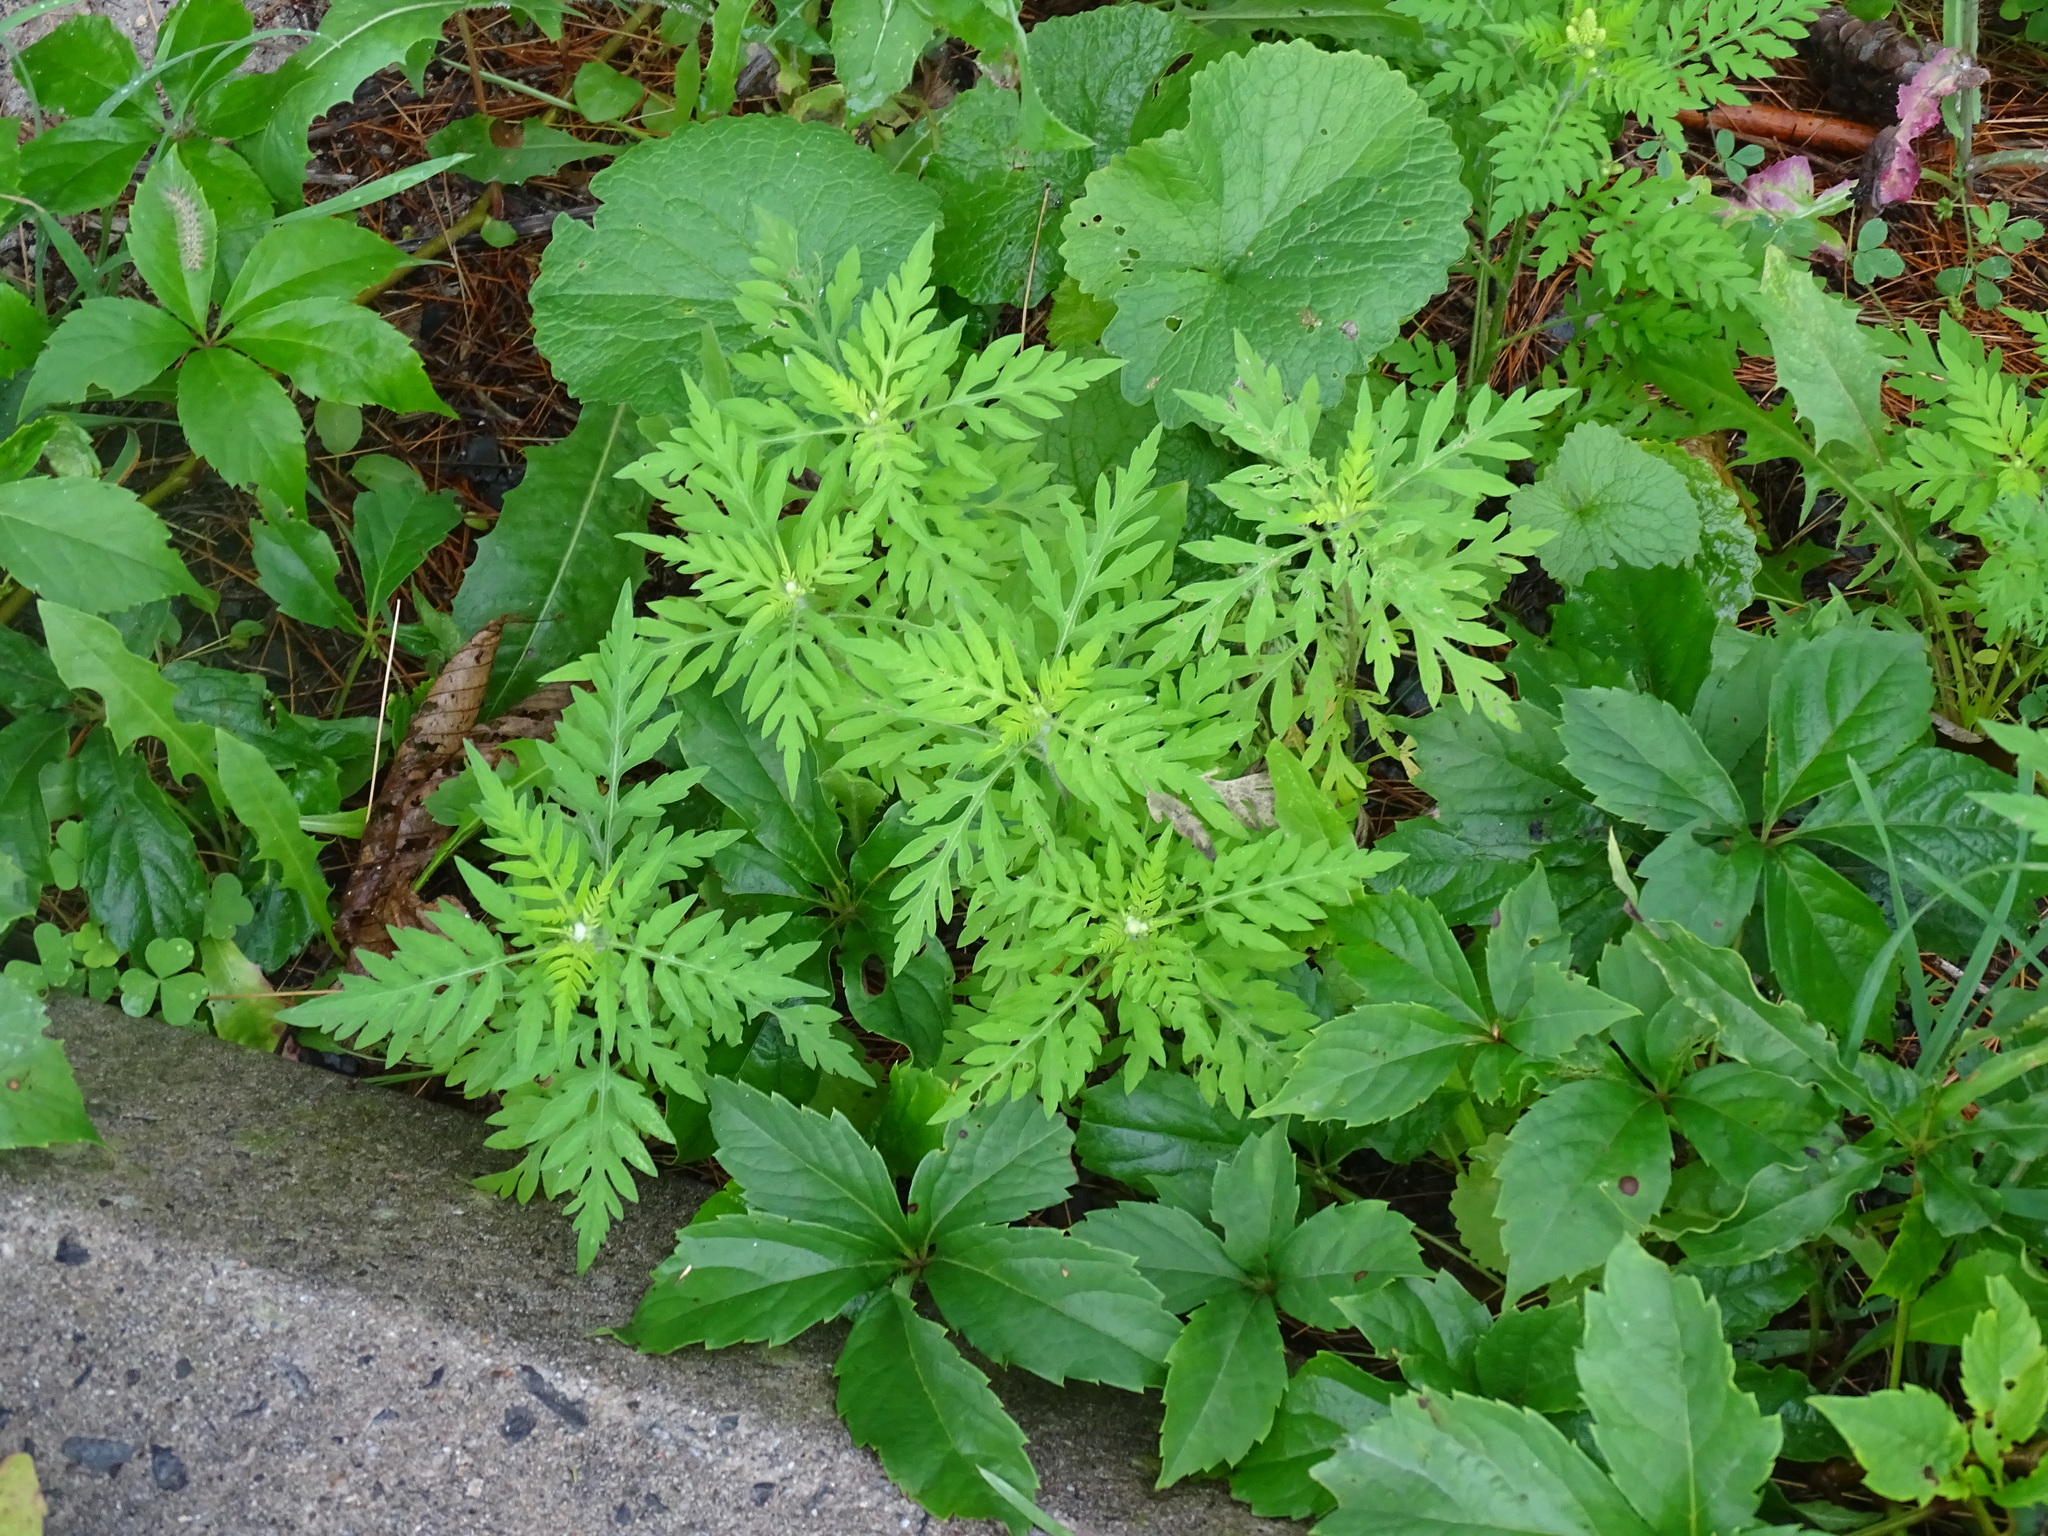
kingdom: Plantae
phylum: Tracheophyta
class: Magnoliopsida
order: Asterales
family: Asteraceae
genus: Ambrosia
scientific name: Ambrosia artemisiifolia
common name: Annual ragweed
